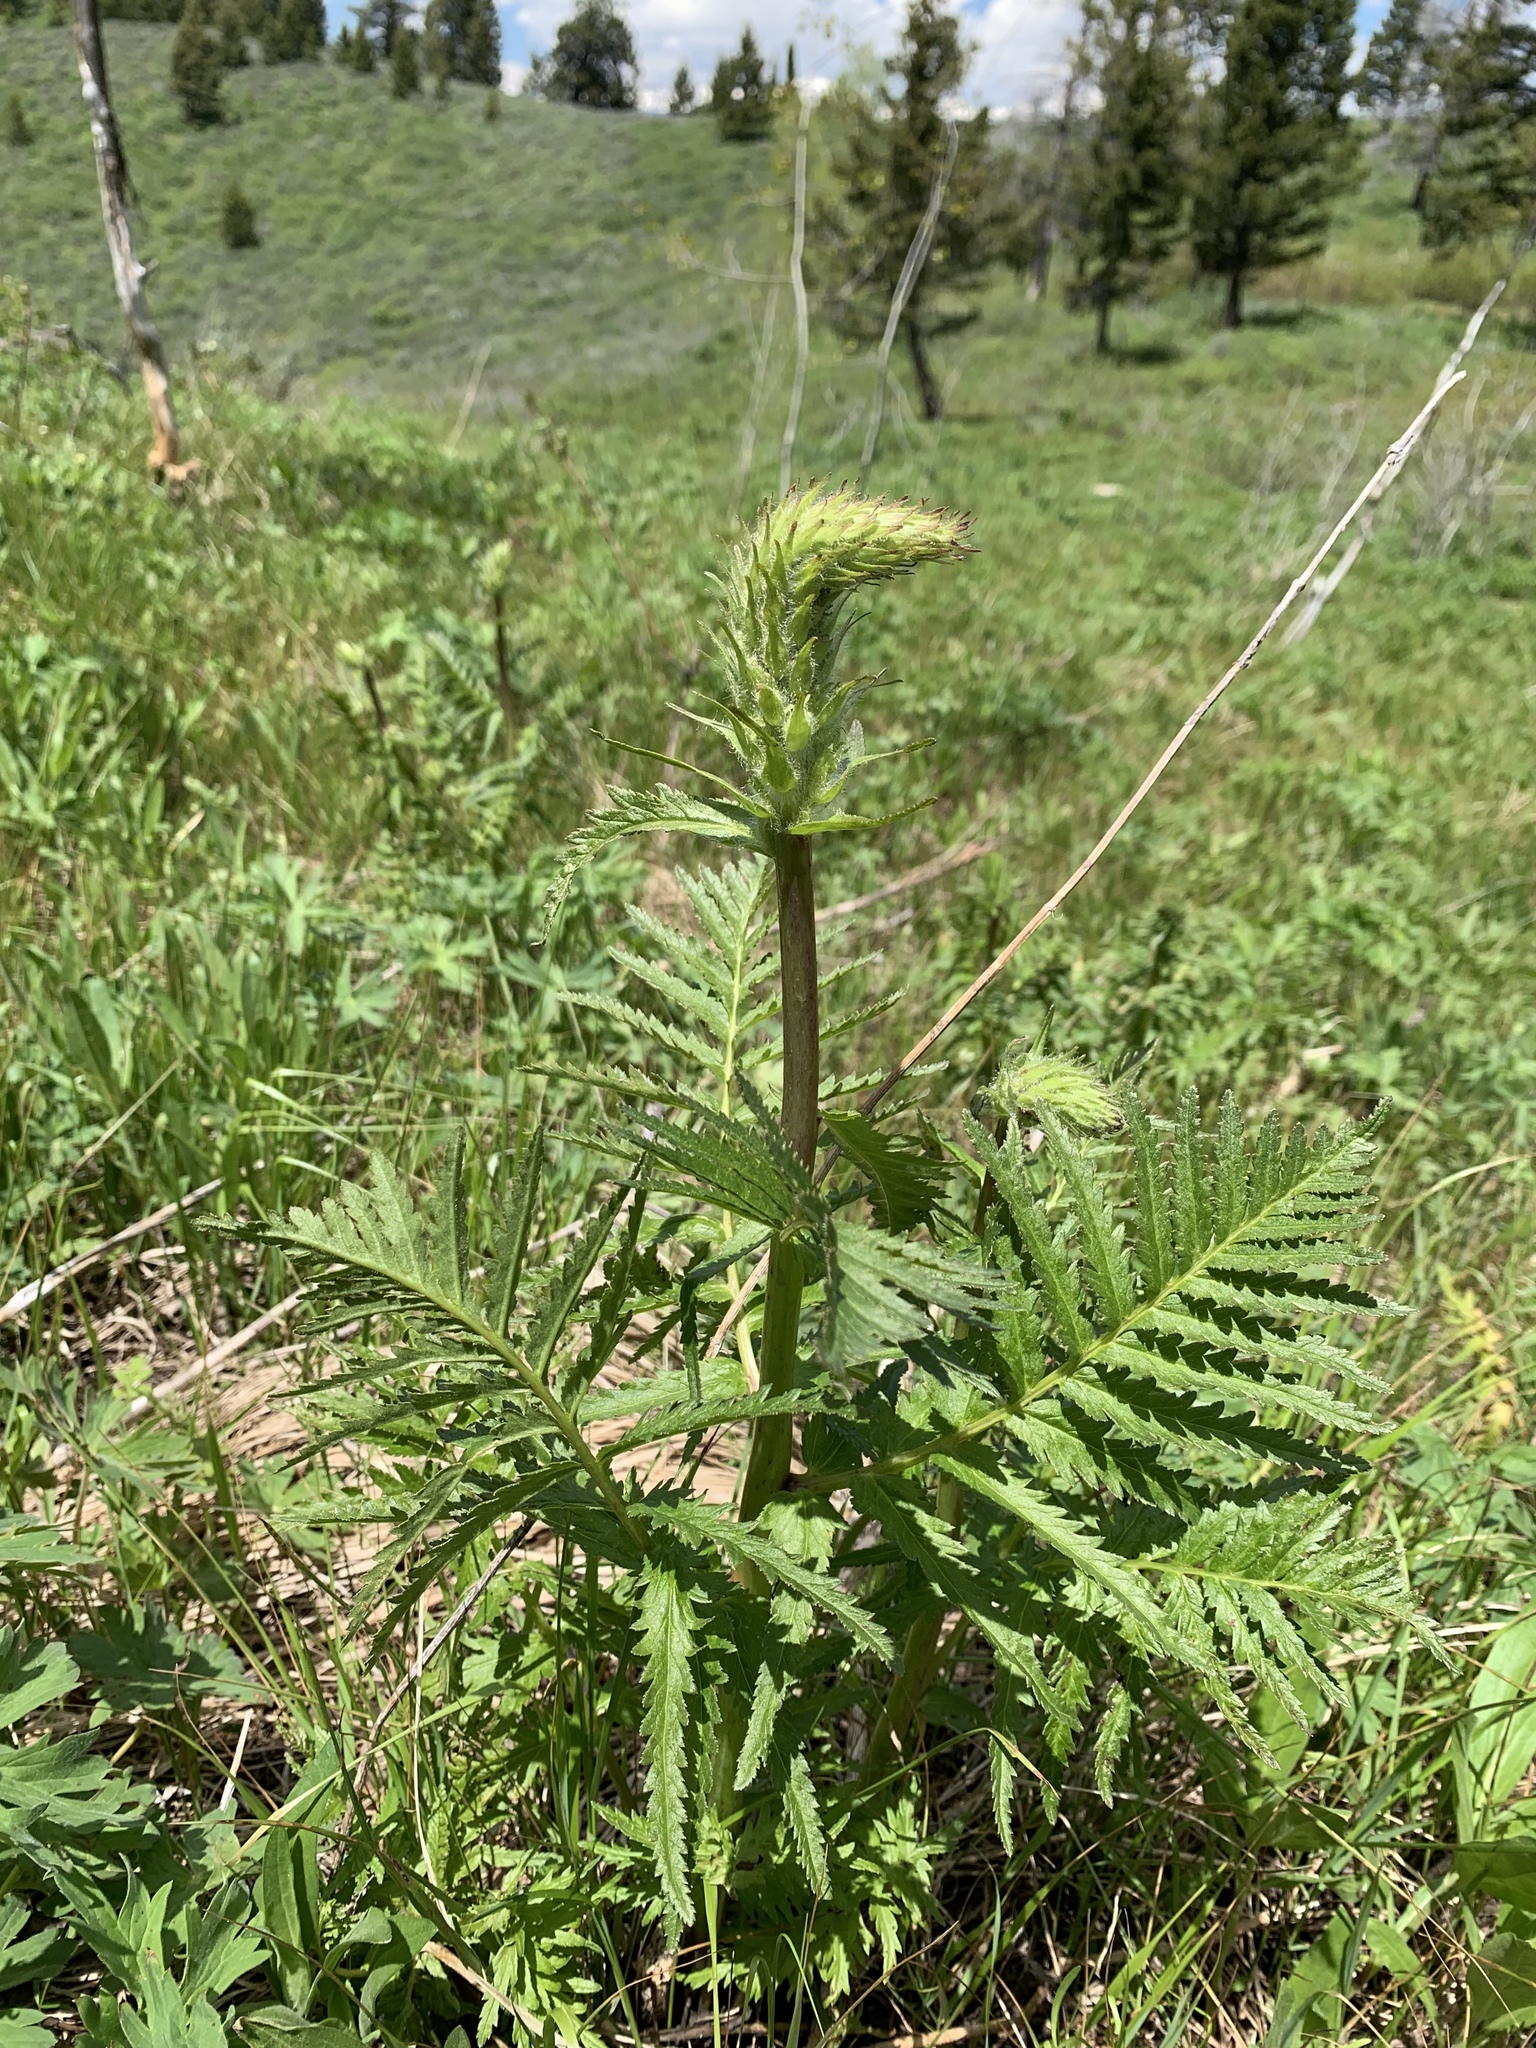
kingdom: Plantae
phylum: Tracheophyta
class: Magnoliopsida
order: Lamiales
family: Orobanchaceae
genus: Pedicularis
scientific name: Pedicularis bracteosa
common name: Bracted lousewort
